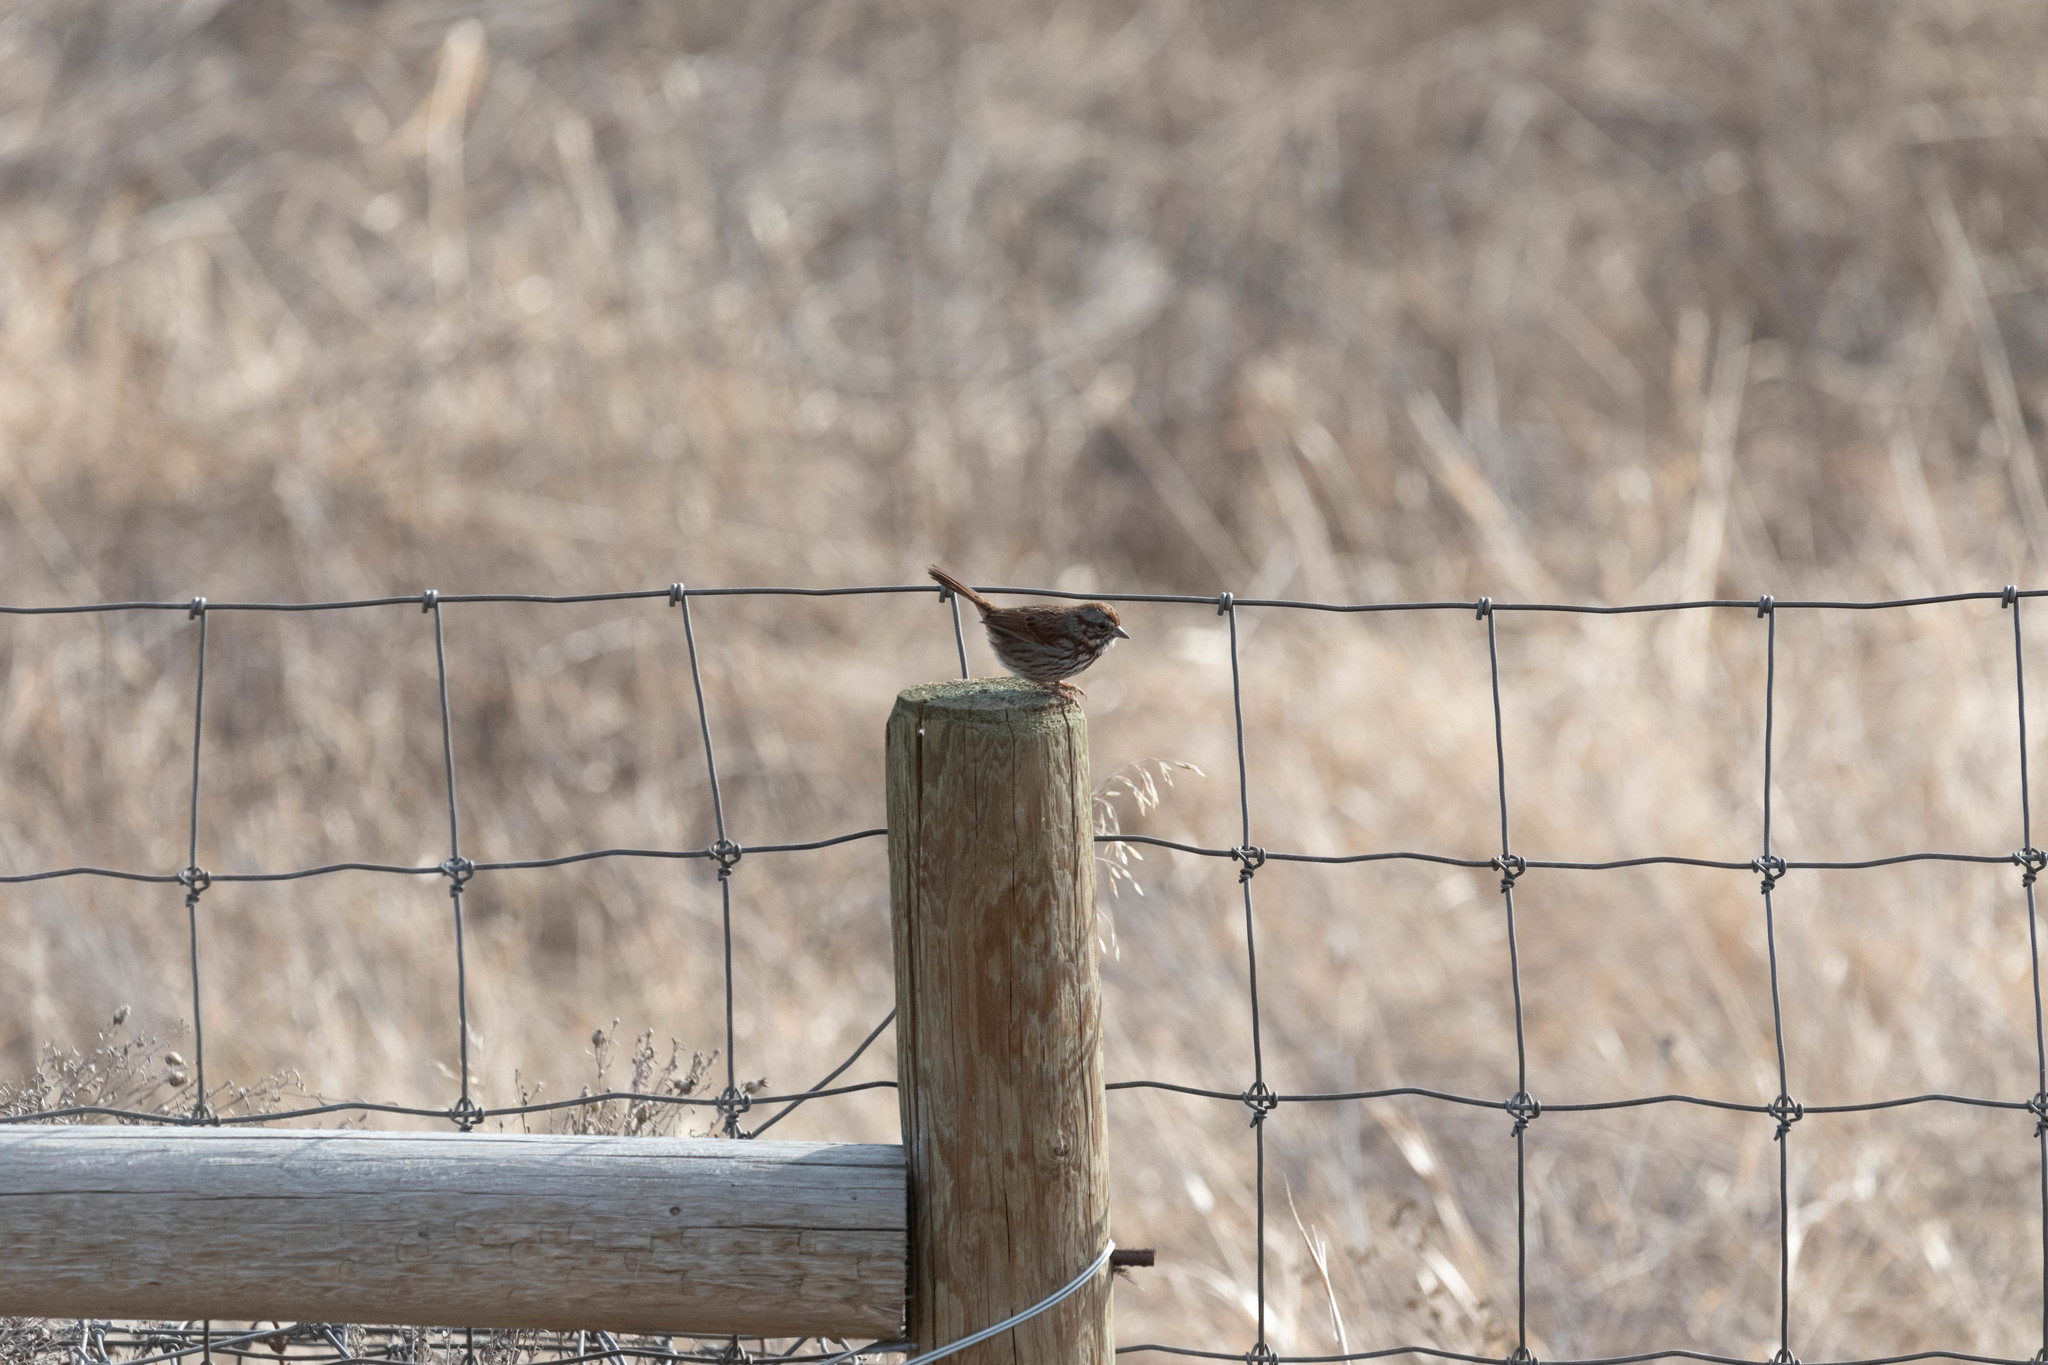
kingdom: Animalia
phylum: Chordata
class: Aves
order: Passeriformes
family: Passerellidae
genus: Melospiza
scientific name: Melospiza melodia
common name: Song sparrow
